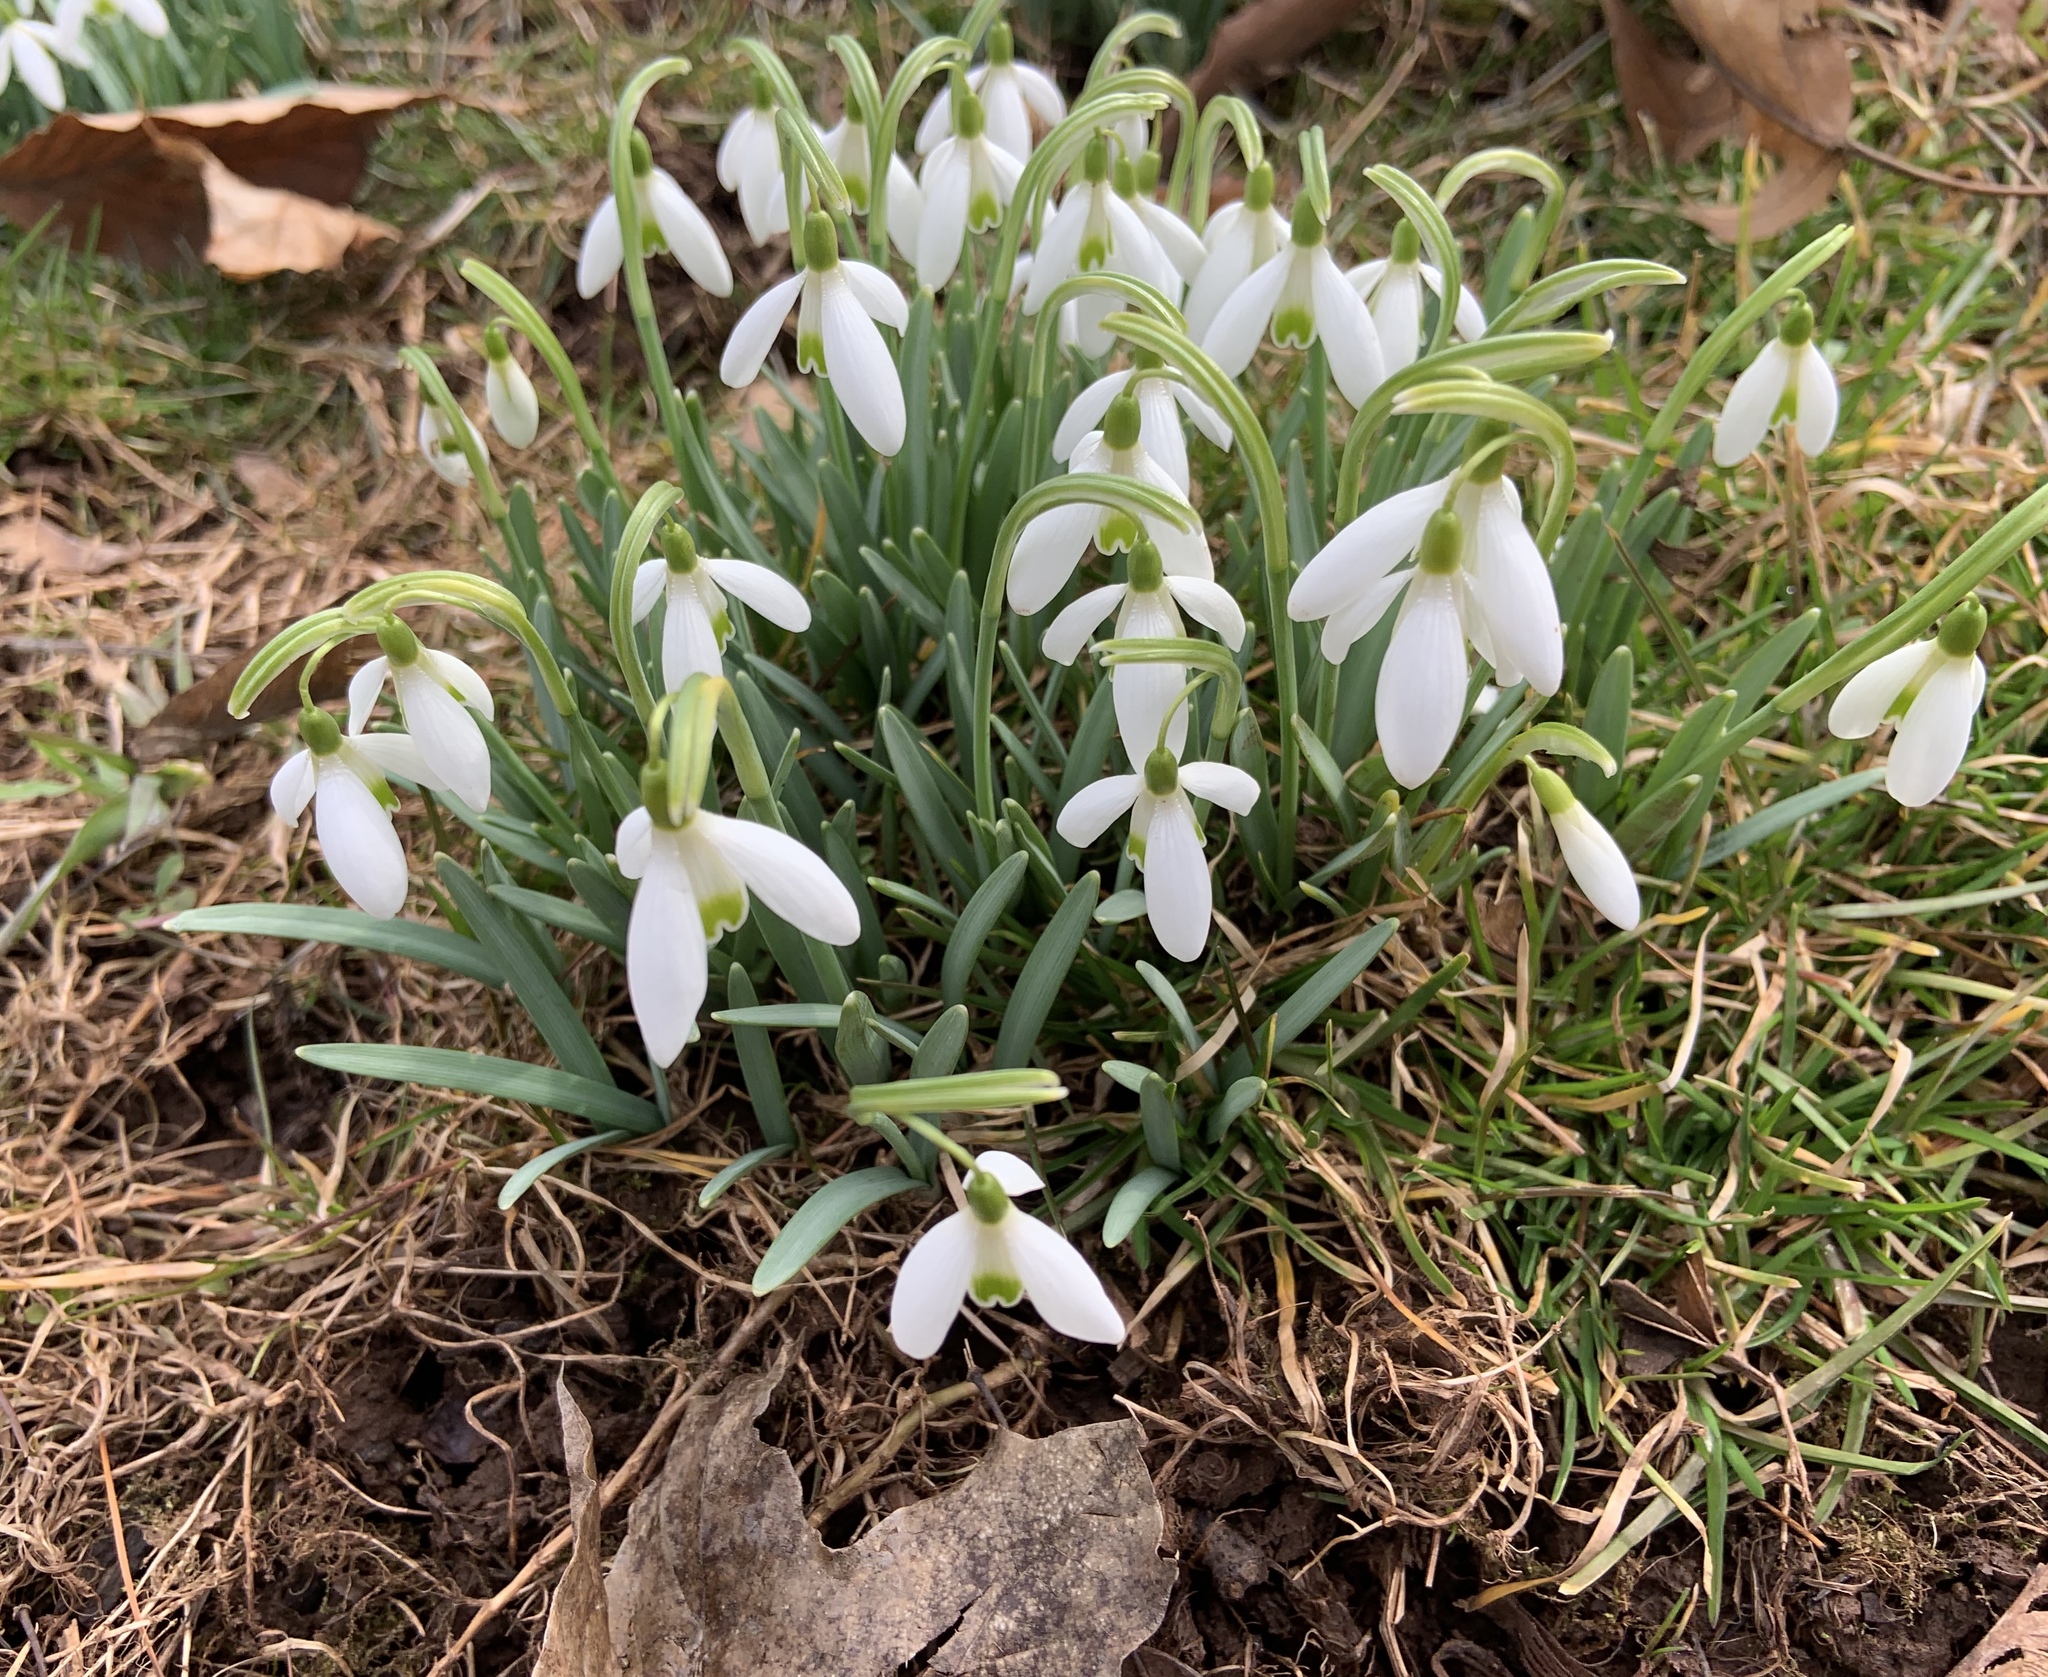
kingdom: Plantae
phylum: Tracheophyta
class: Liliopsida
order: Asparagales
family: Amaryllidaceae
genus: Galanthus
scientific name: Galanthus nivalis
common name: Snowdrop
